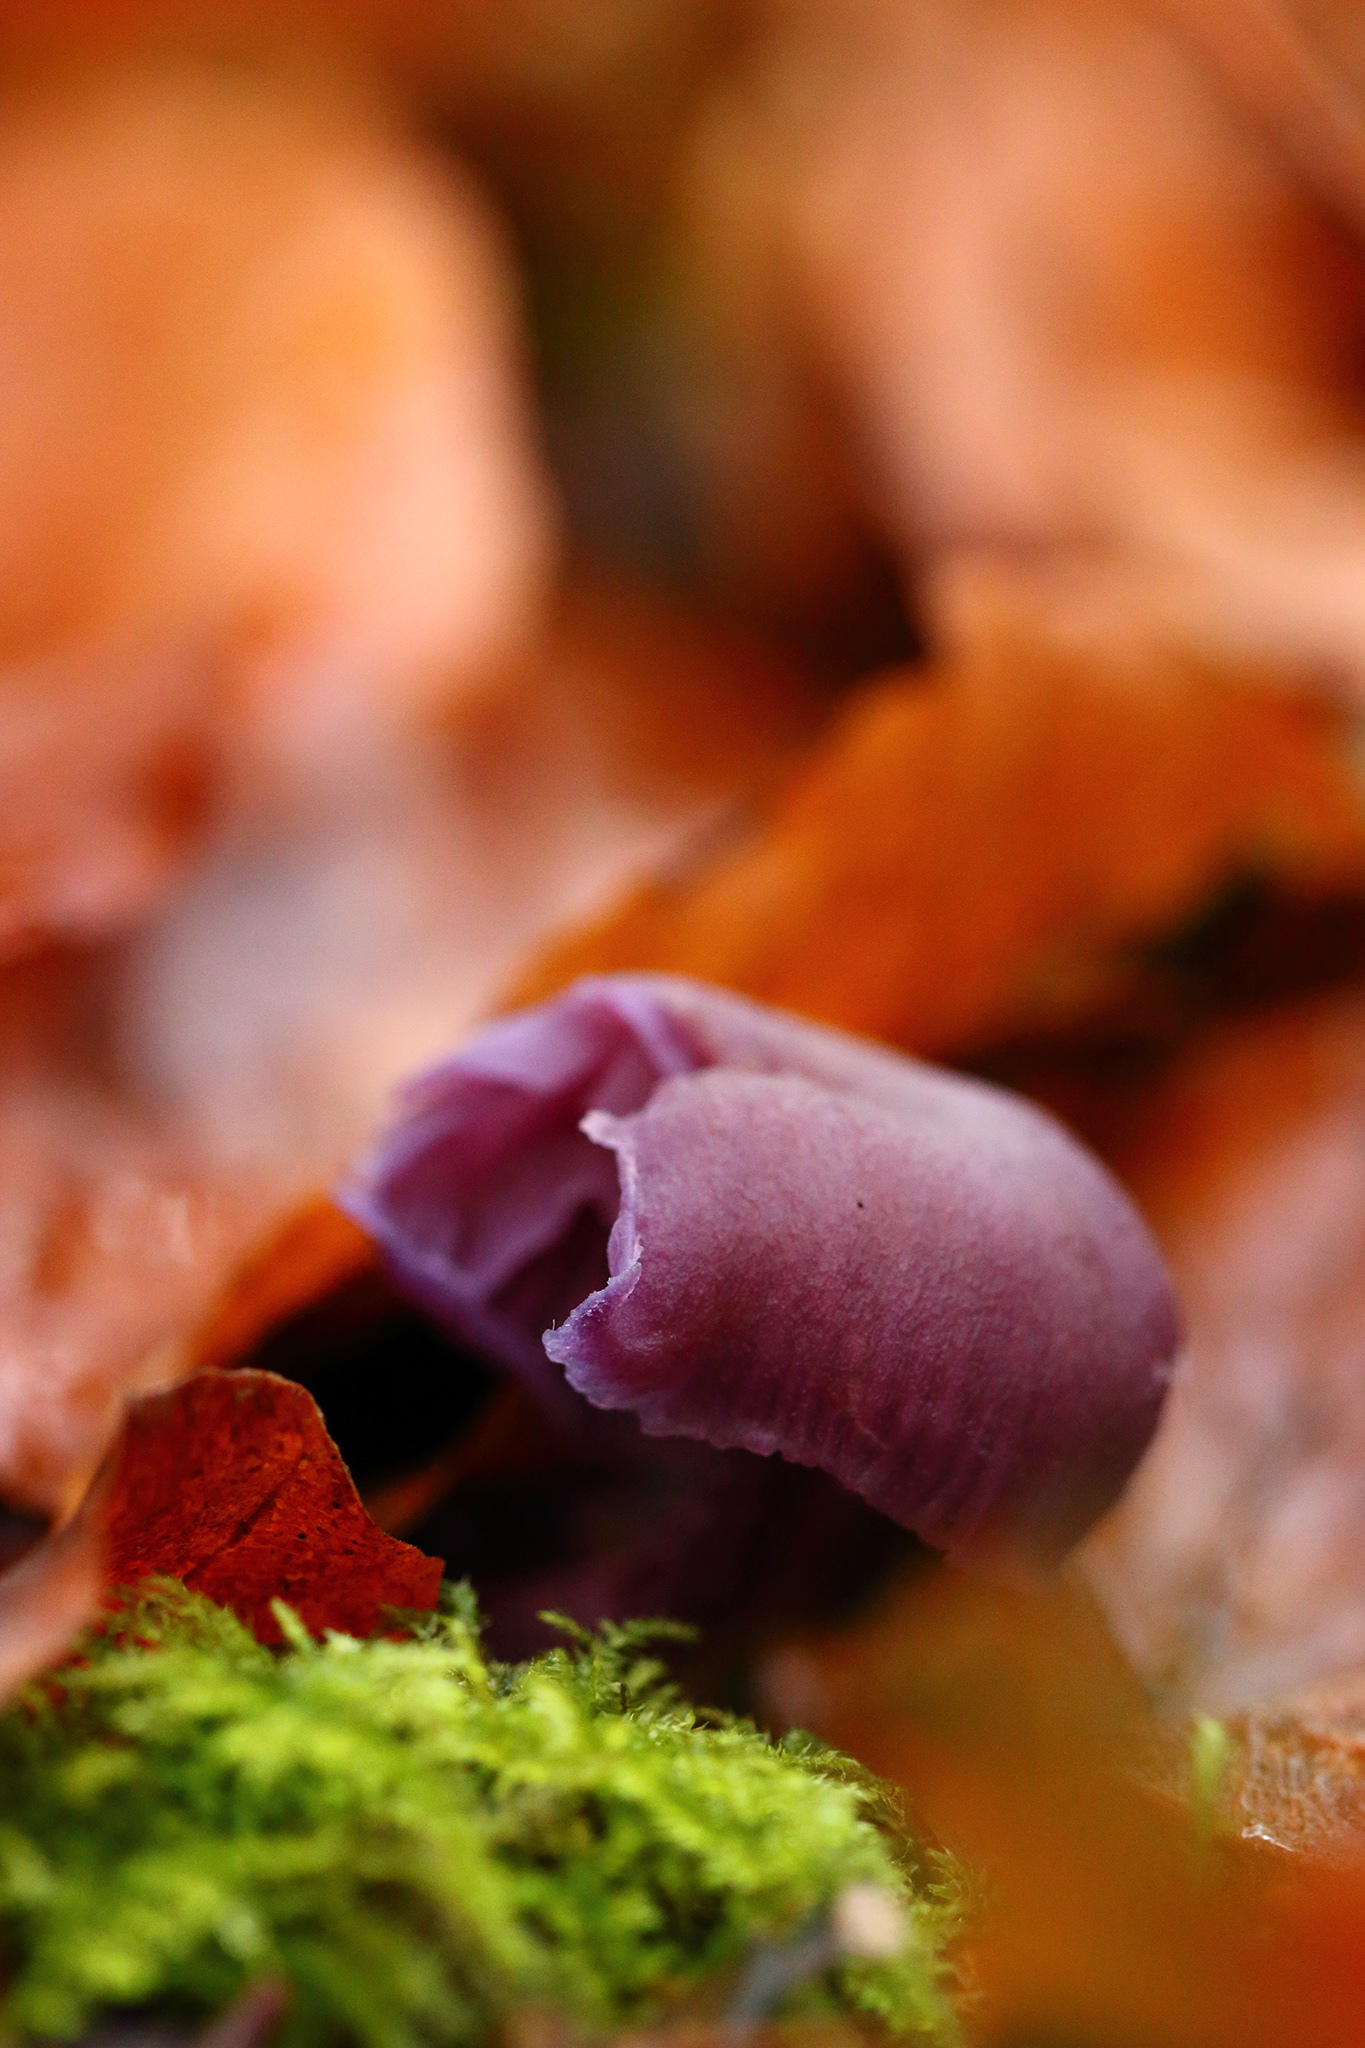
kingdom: Fungi
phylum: Basidiomycota
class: Agaricomycetes
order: Agaricales
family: Hydnangiaceae
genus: Laccaria
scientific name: Laccaria amethystina
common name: Amethyst deceiver
